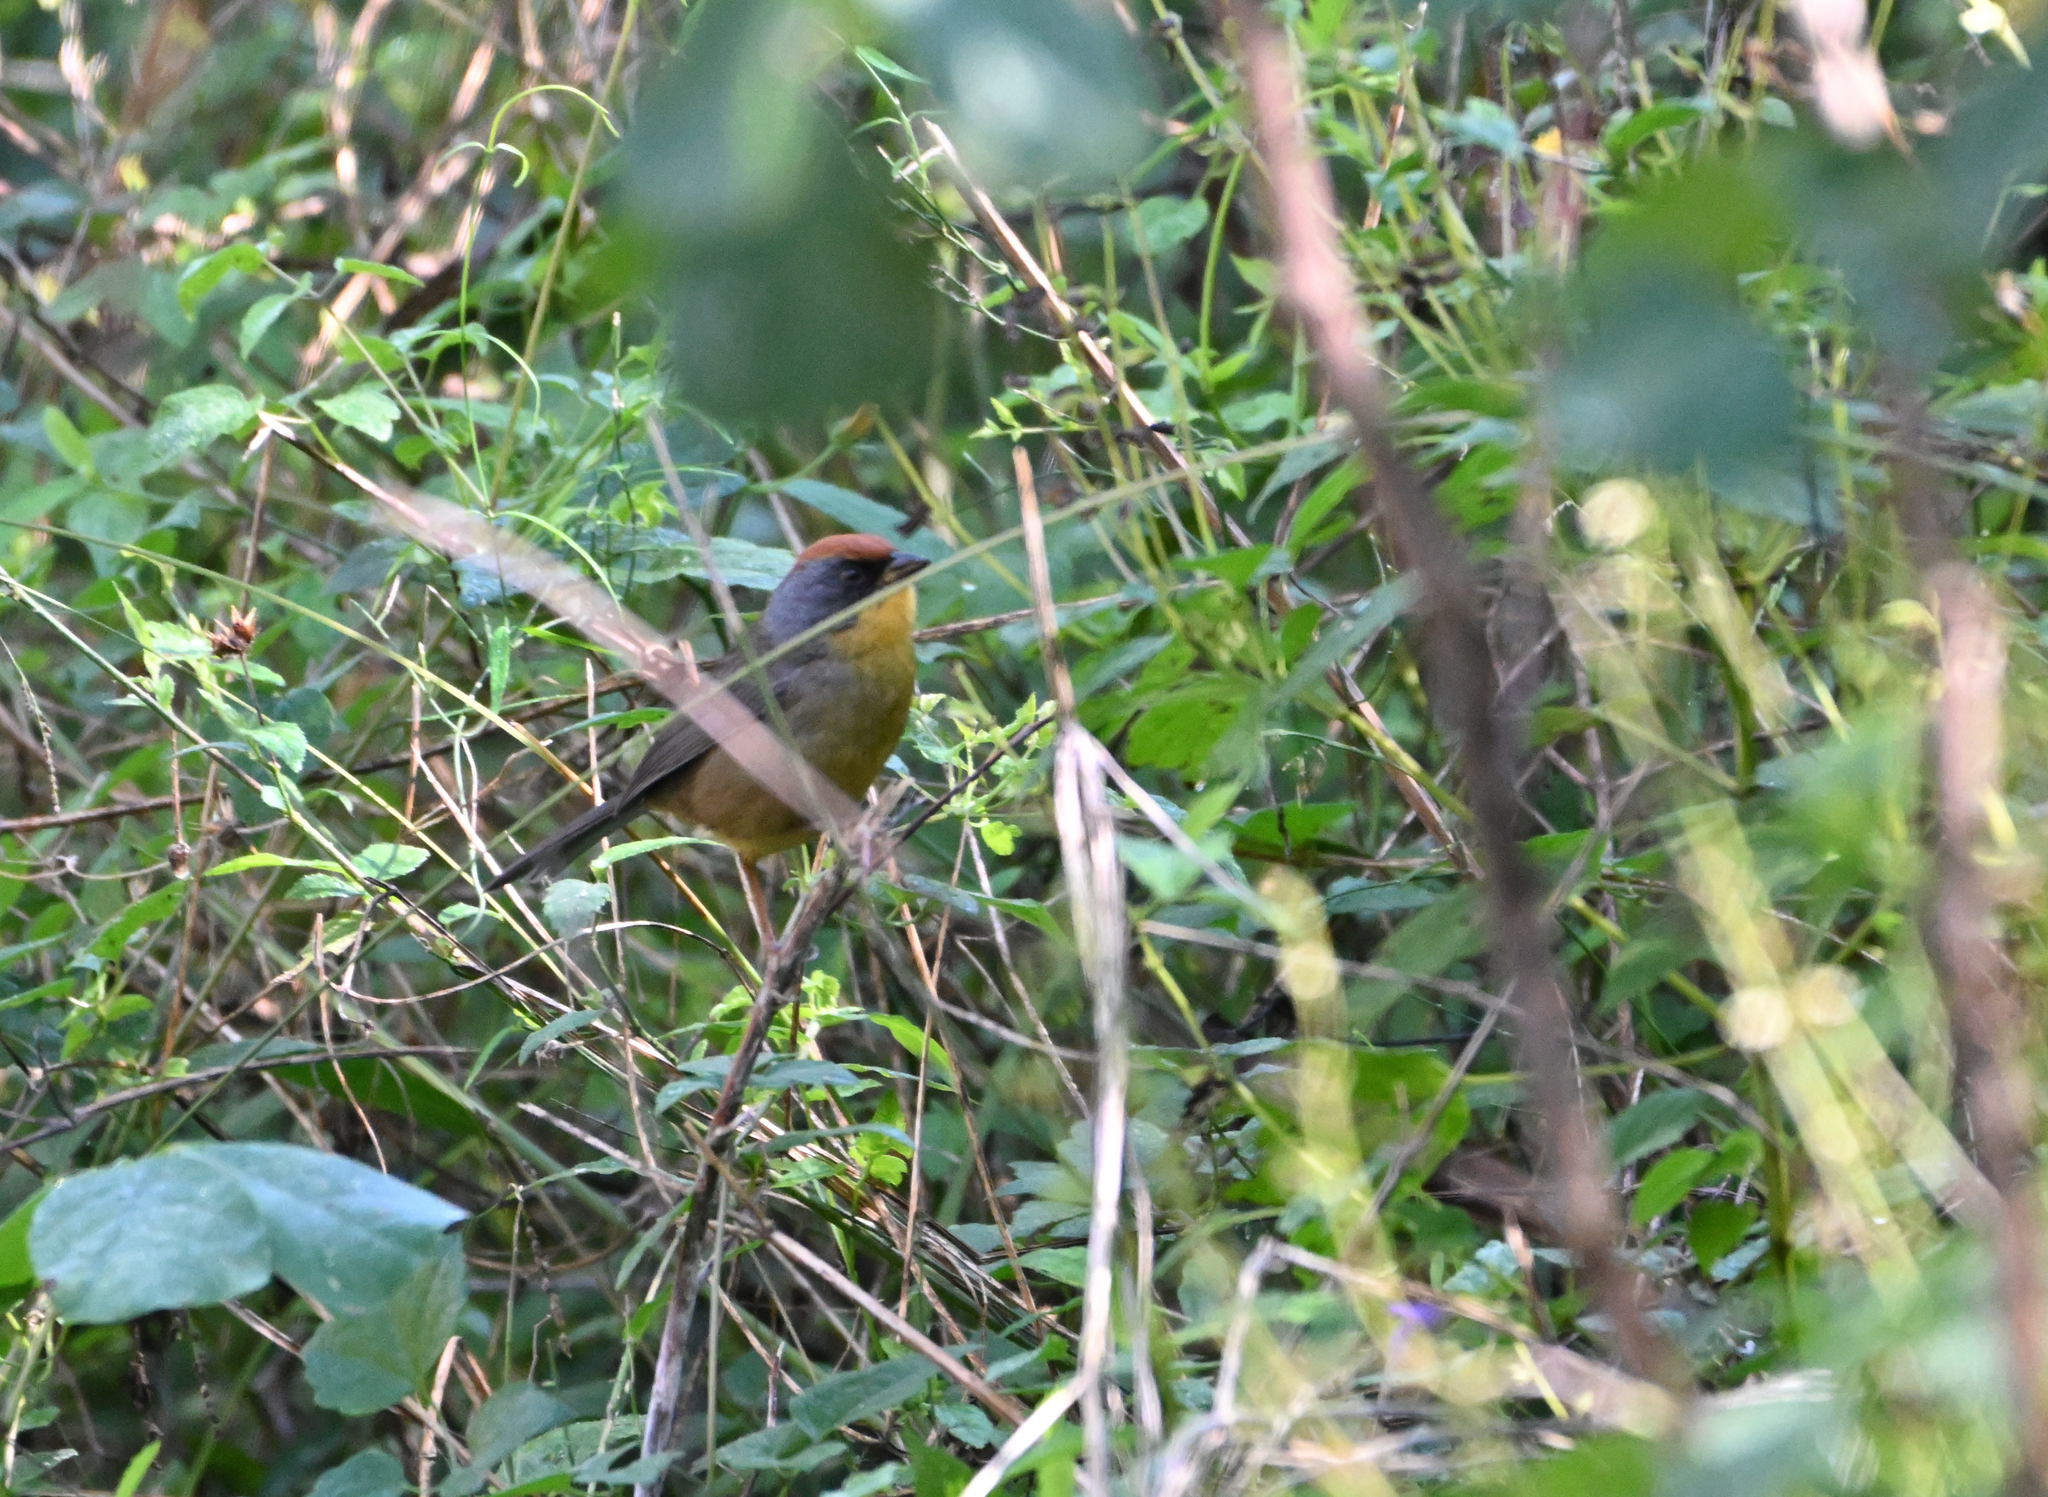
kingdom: Animalia
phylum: Chordata
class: Aves
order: Passeriformes
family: Passerellidae
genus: Atlapetes
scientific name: Atlapetes pileatus
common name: Rufous-capped brush-finch
